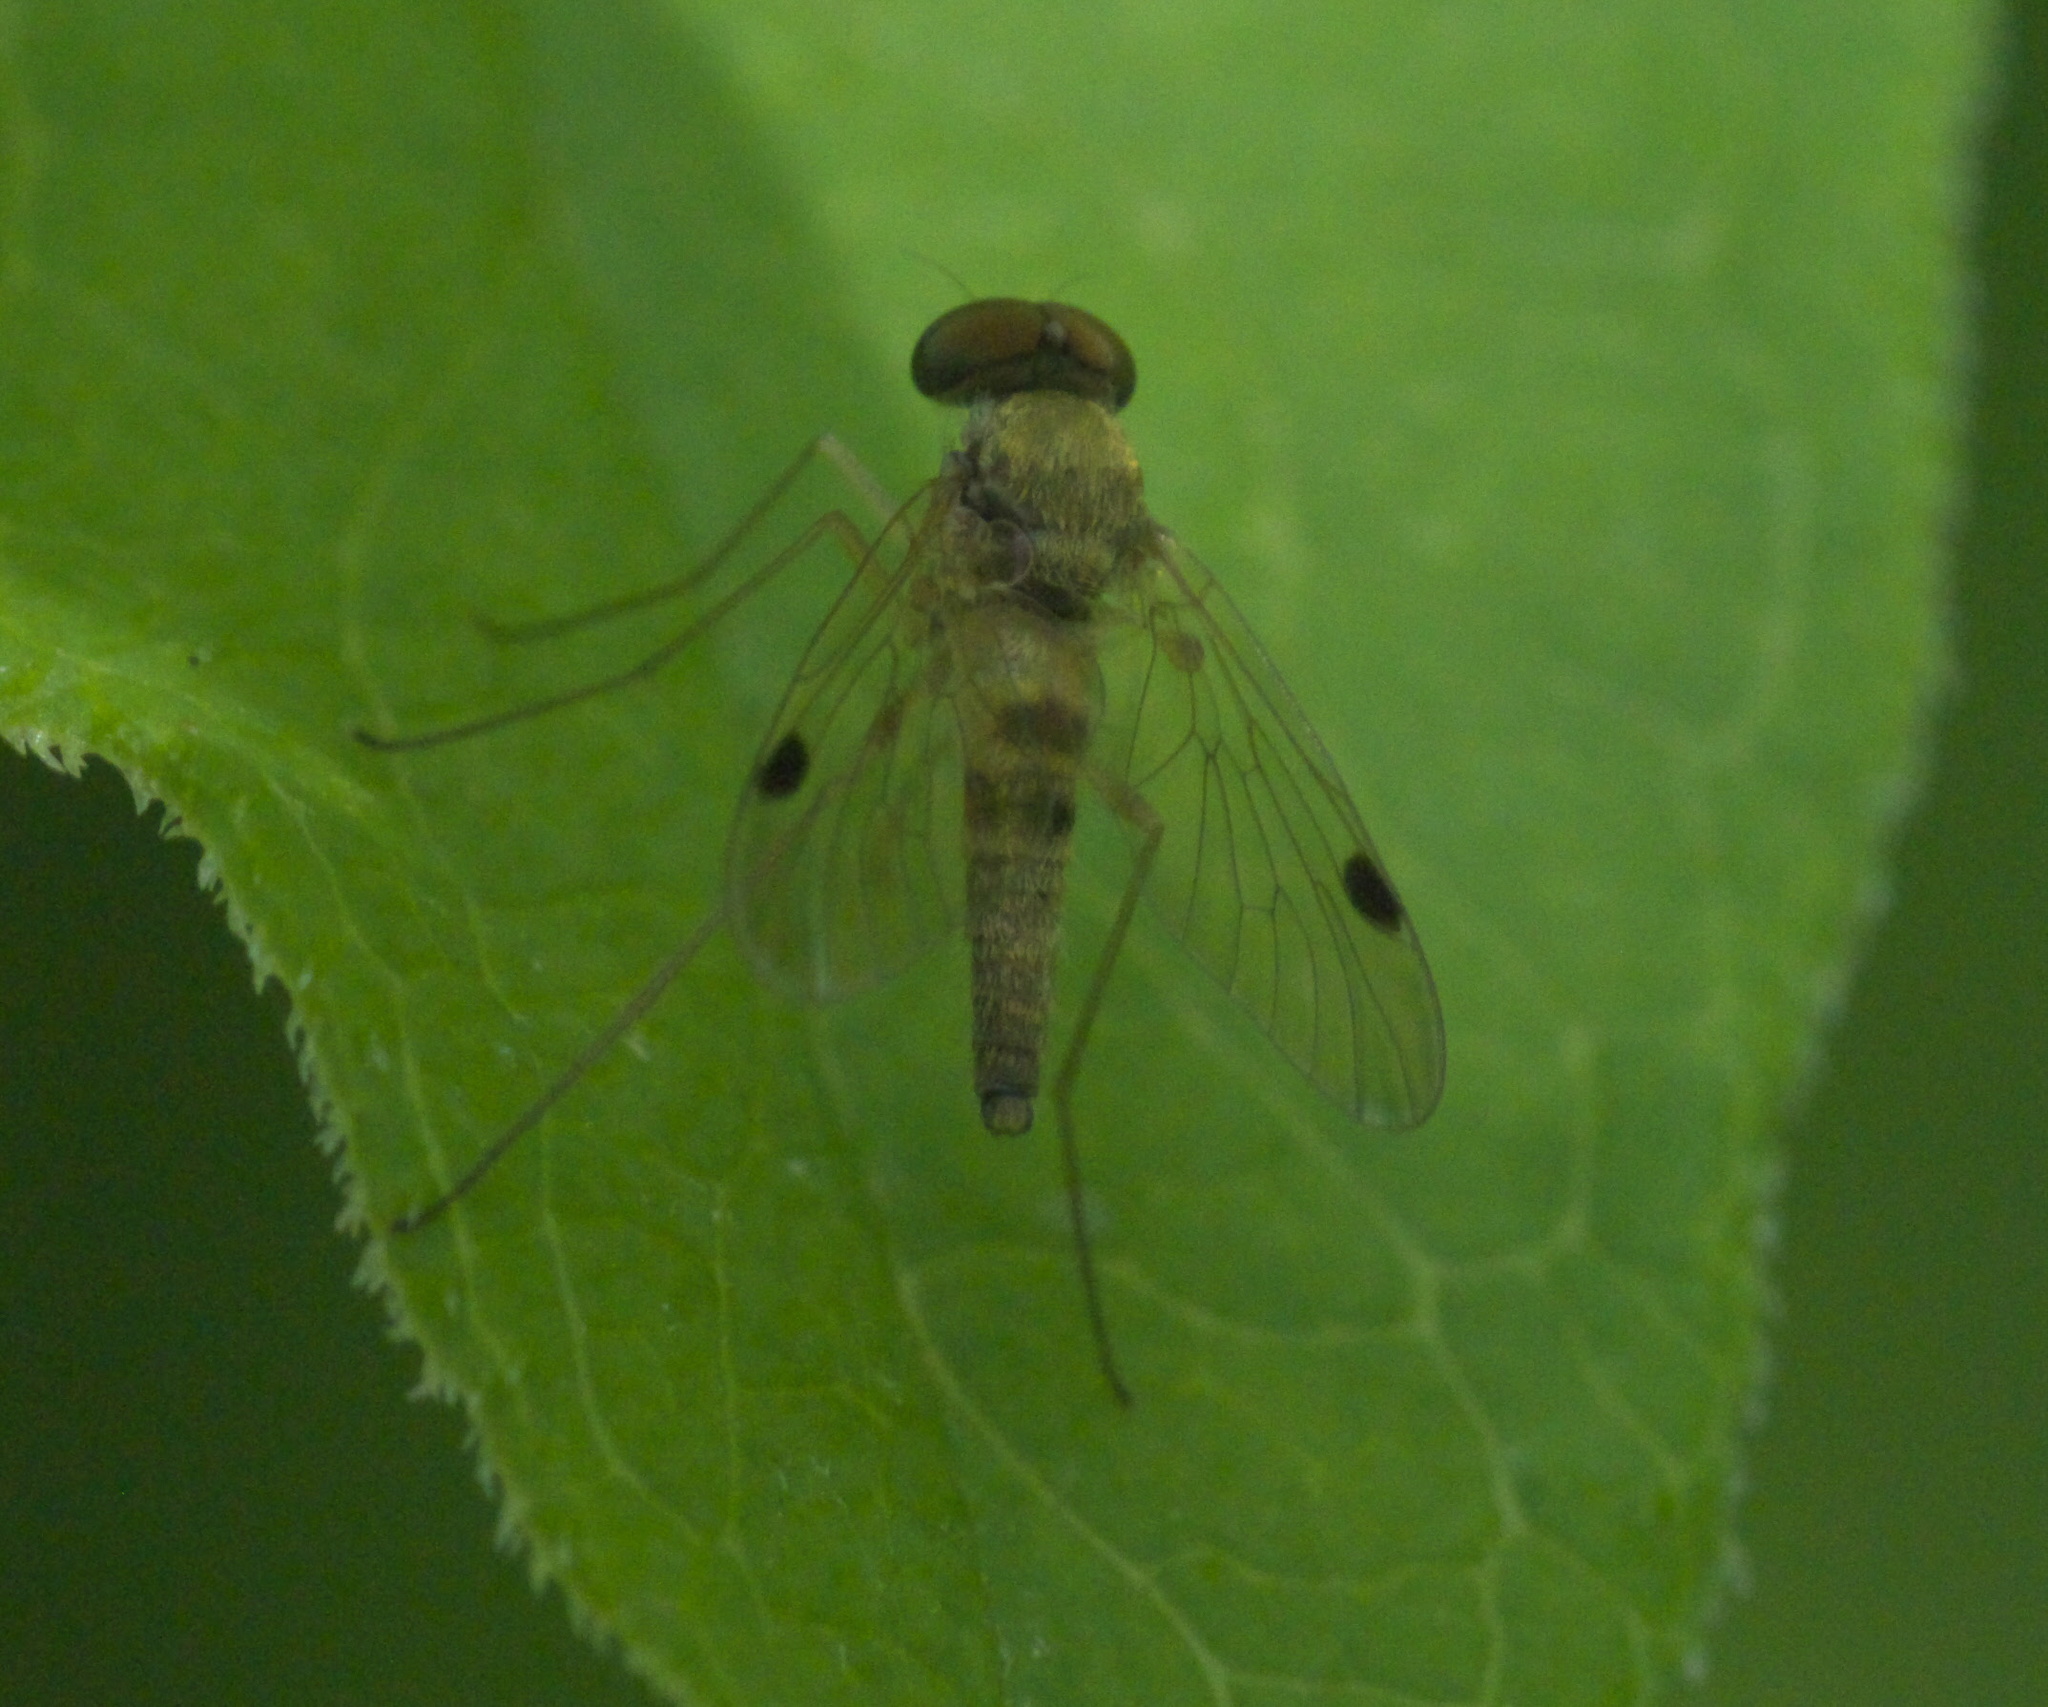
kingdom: Animalia
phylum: Arthropoda
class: Insecta
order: Diptera
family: Rhagionidae
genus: Chrysopilus
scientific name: Chrysopilus modestus
